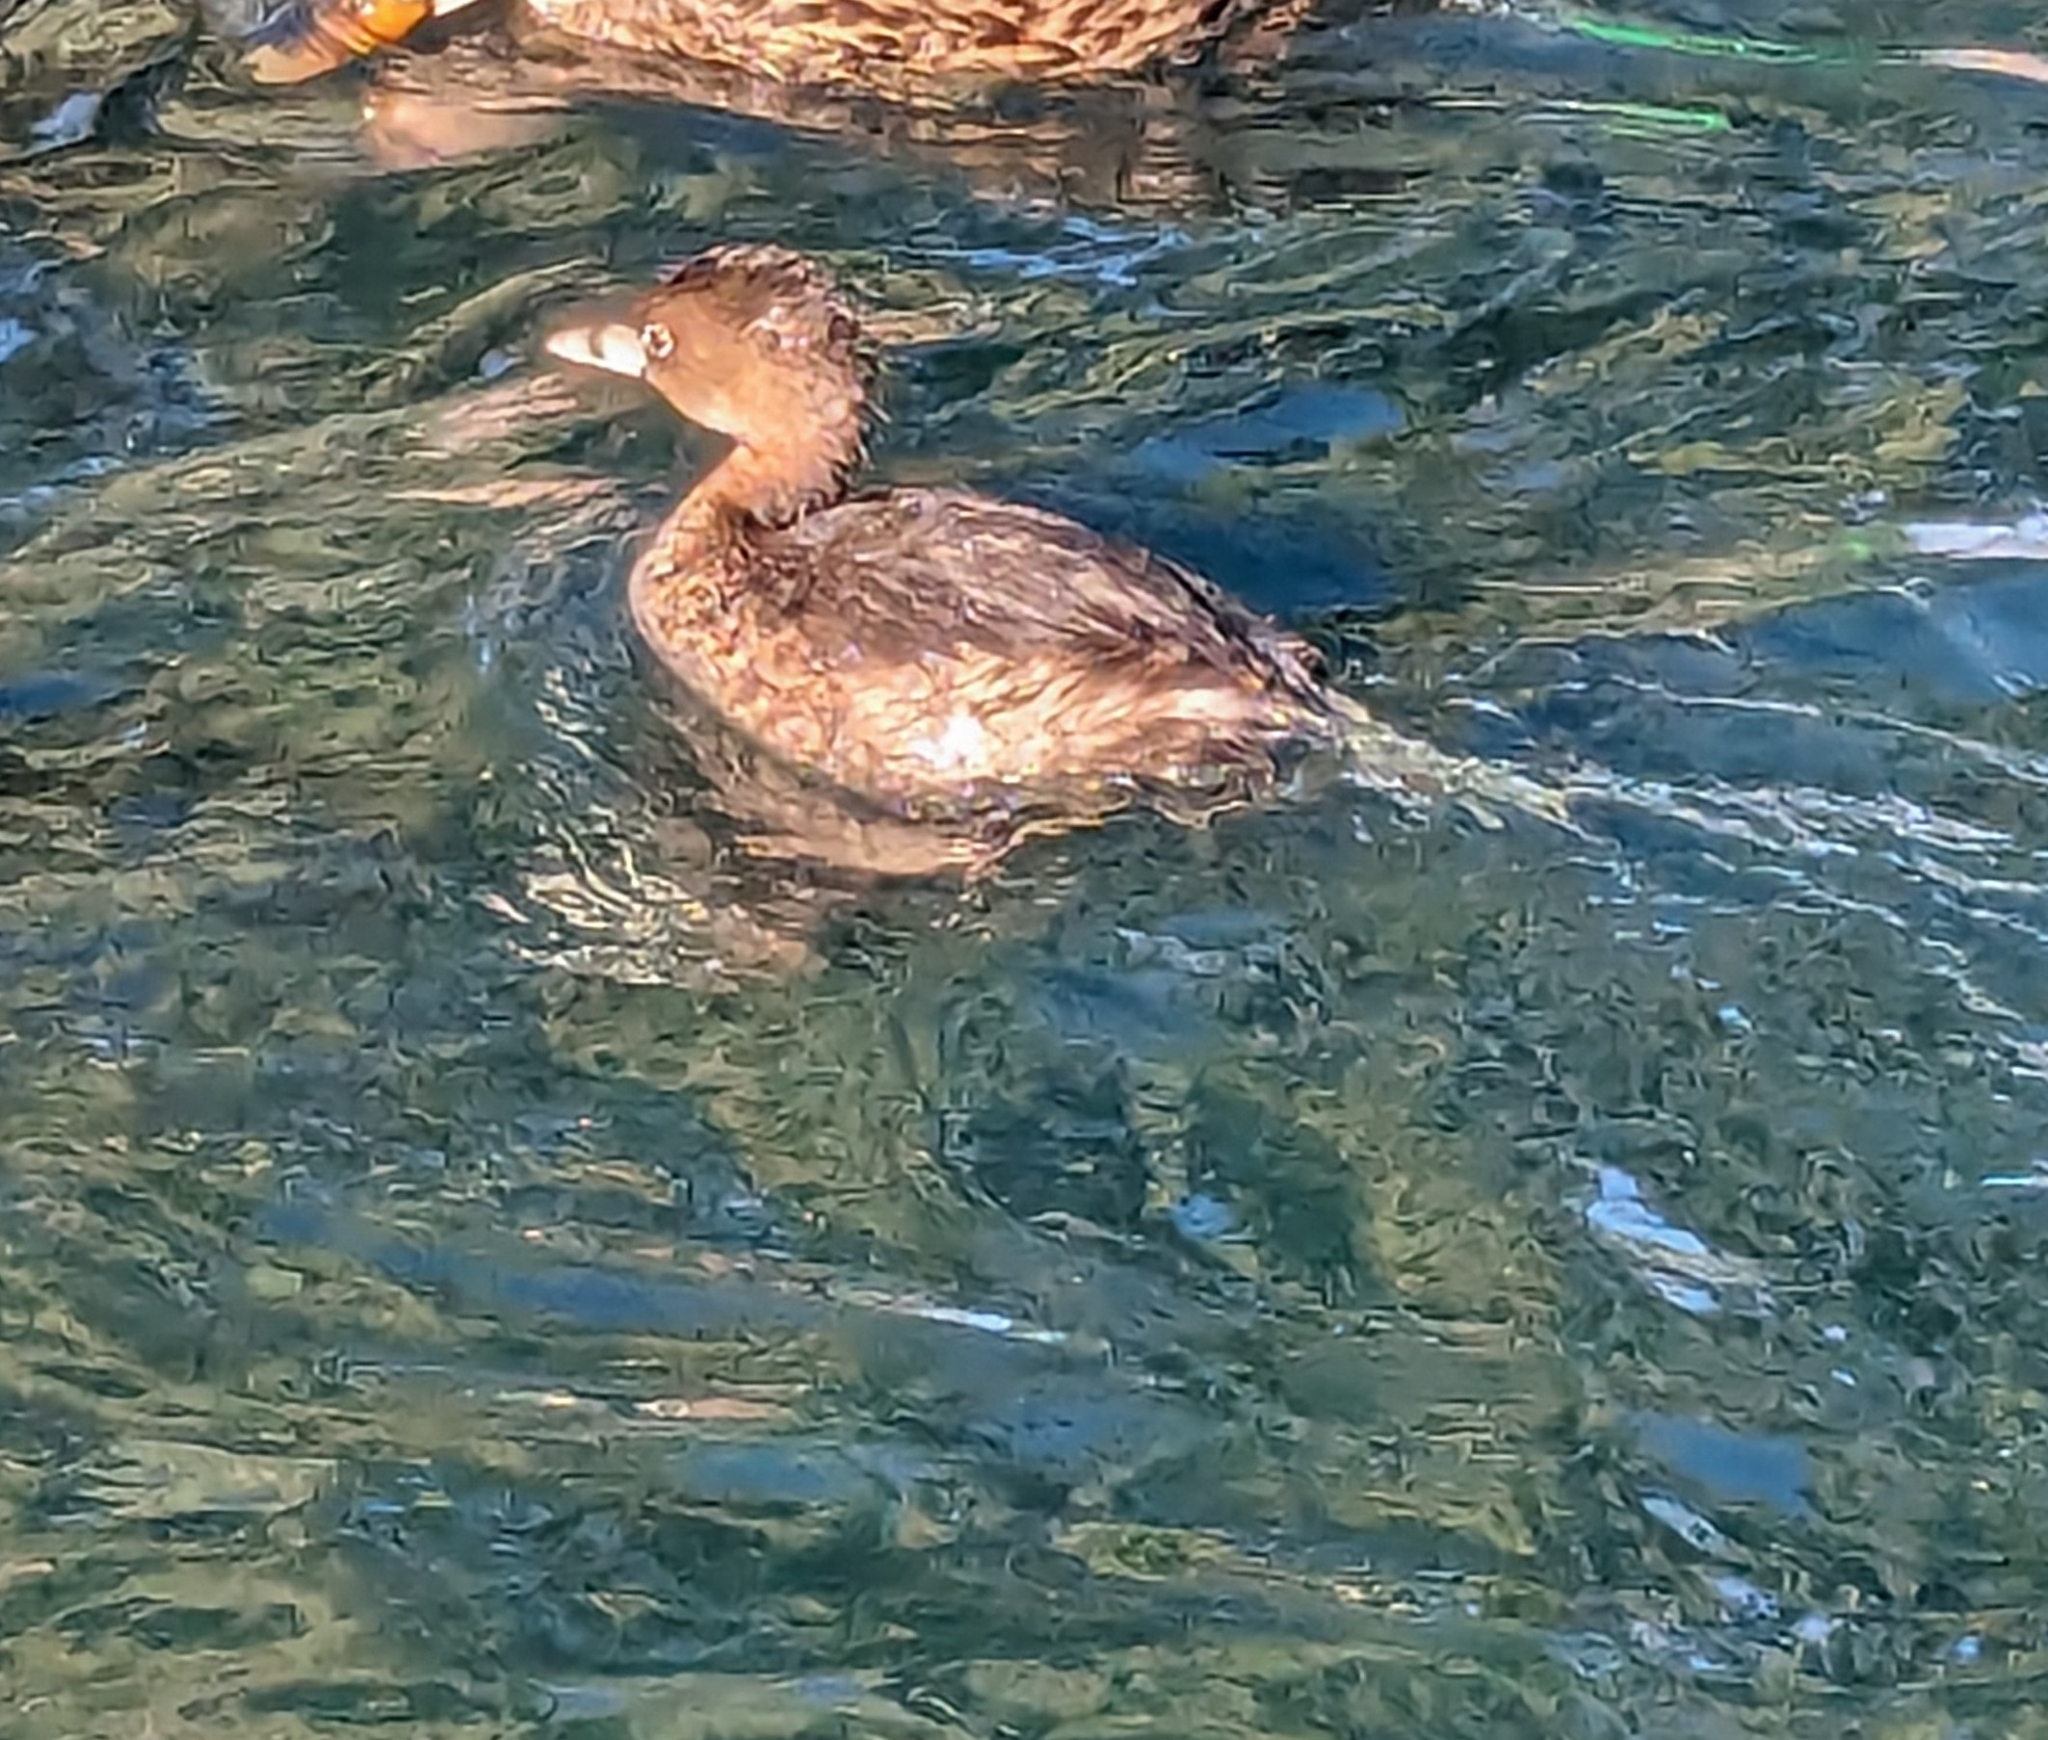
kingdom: Animalia
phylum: Chordata
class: Aves
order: Podicipediformes
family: Podicipedidae
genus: Podilymbus
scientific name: Podilymbus podiceps
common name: Pied-billed grebe
